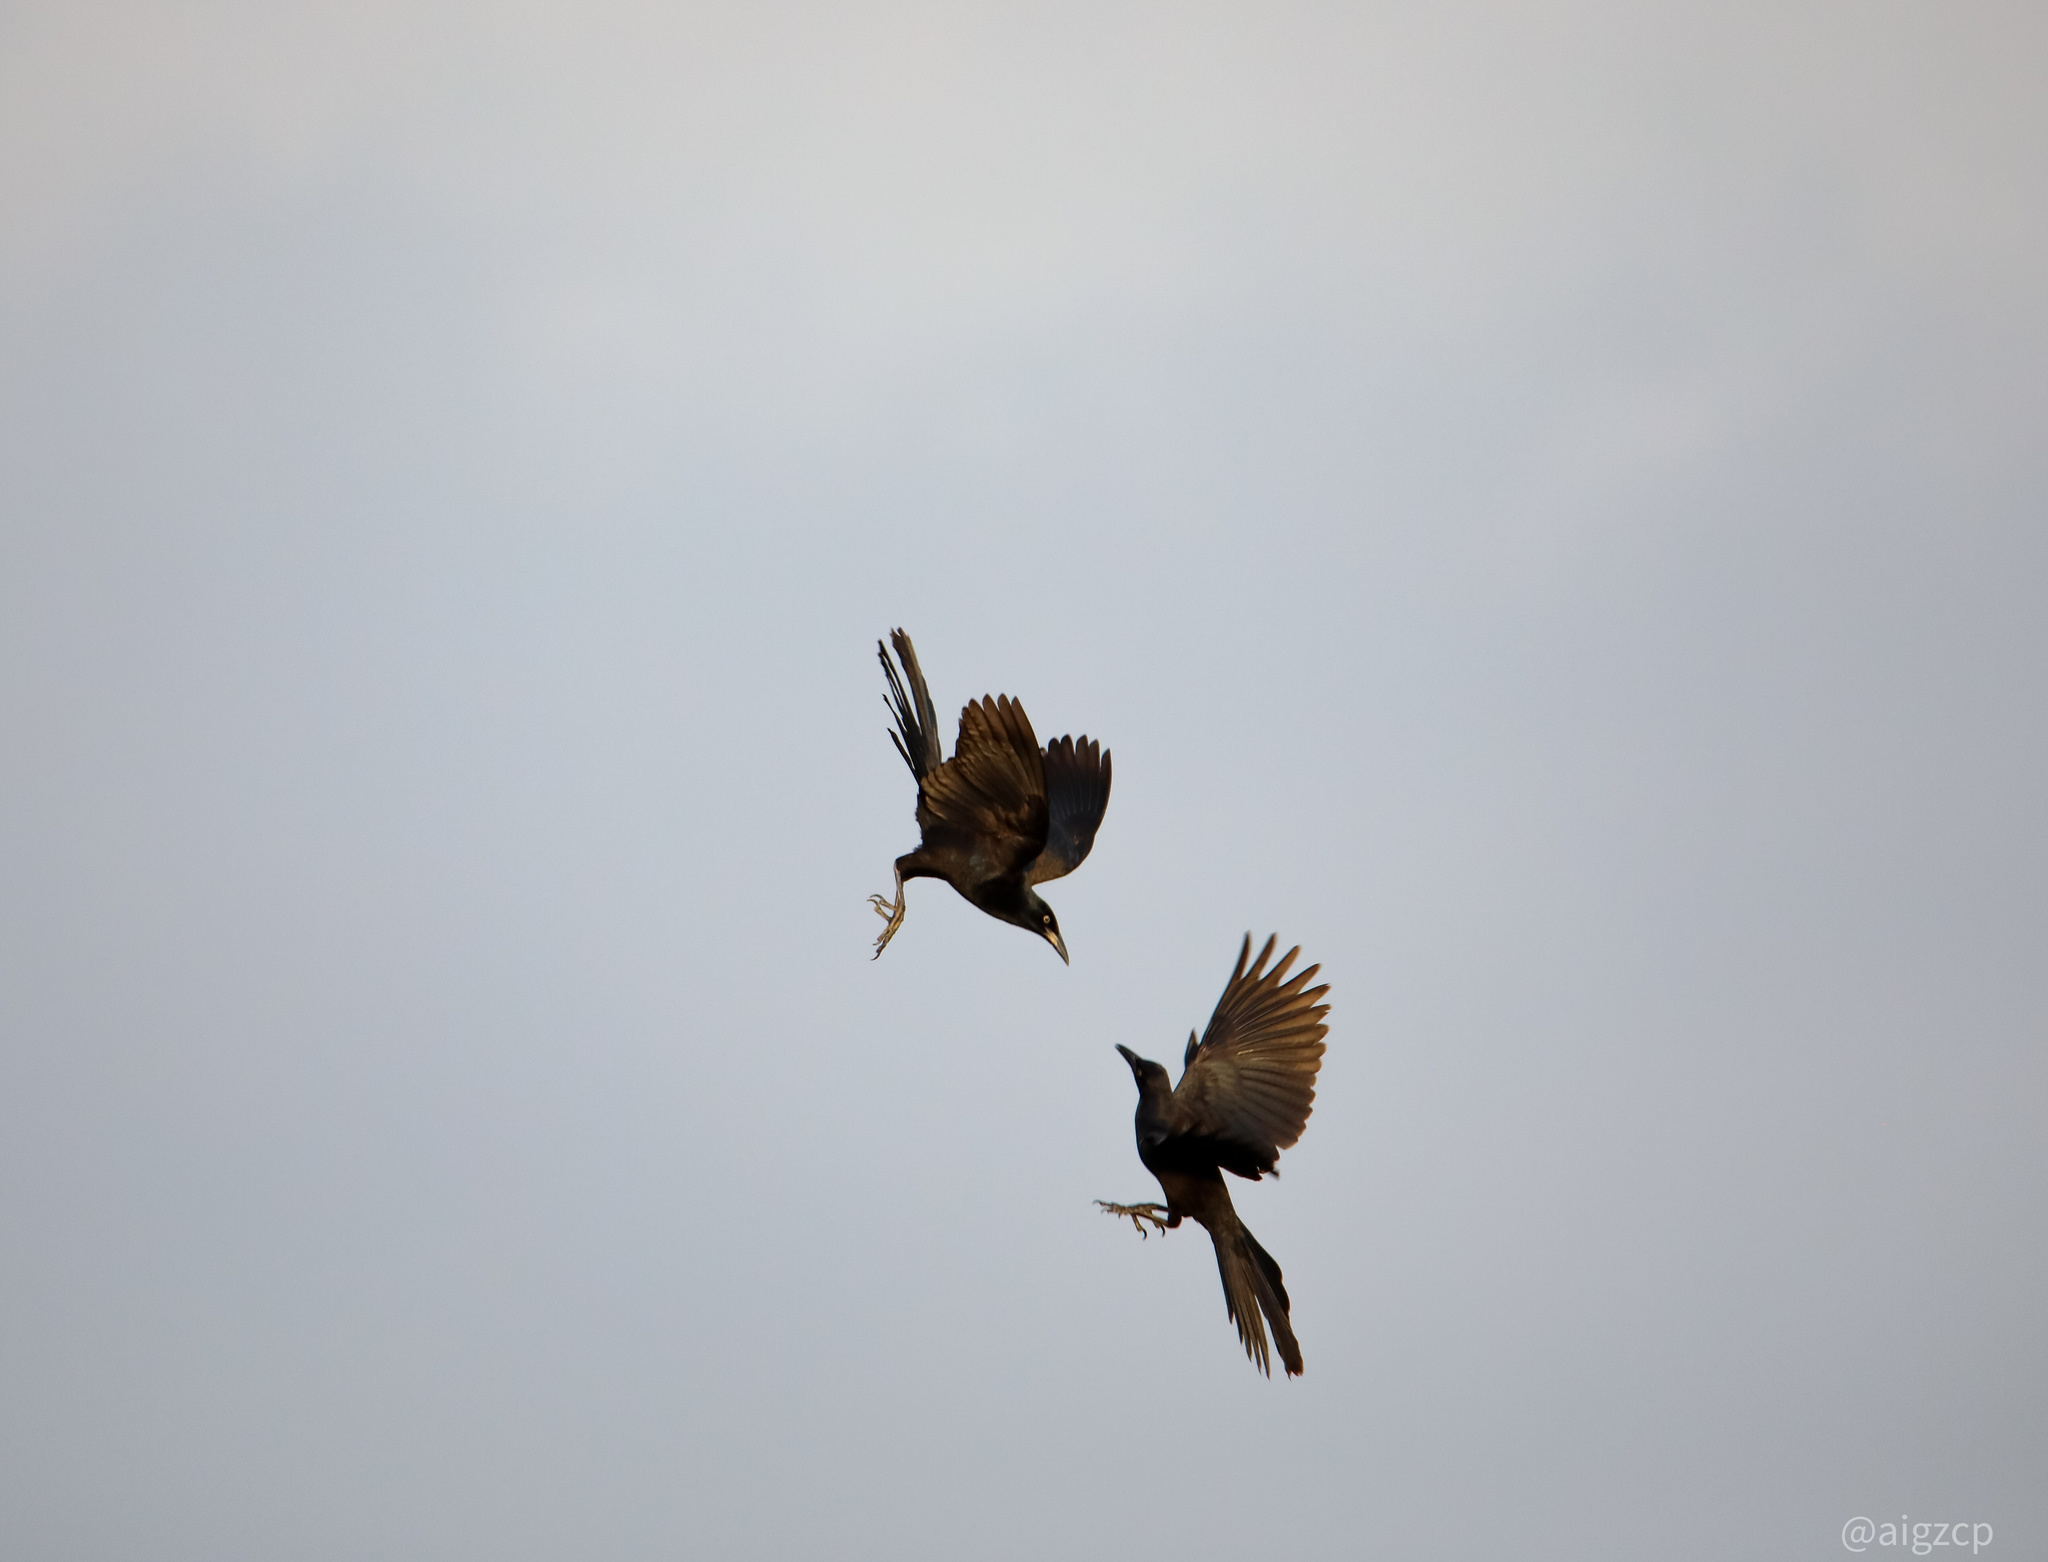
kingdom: Animalia
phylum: Chordata
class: Aves
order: Passeriformes
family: Icteridae
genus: Quiscalus
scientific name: Quiscalus mexicanus
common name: Great-tailed grackle
